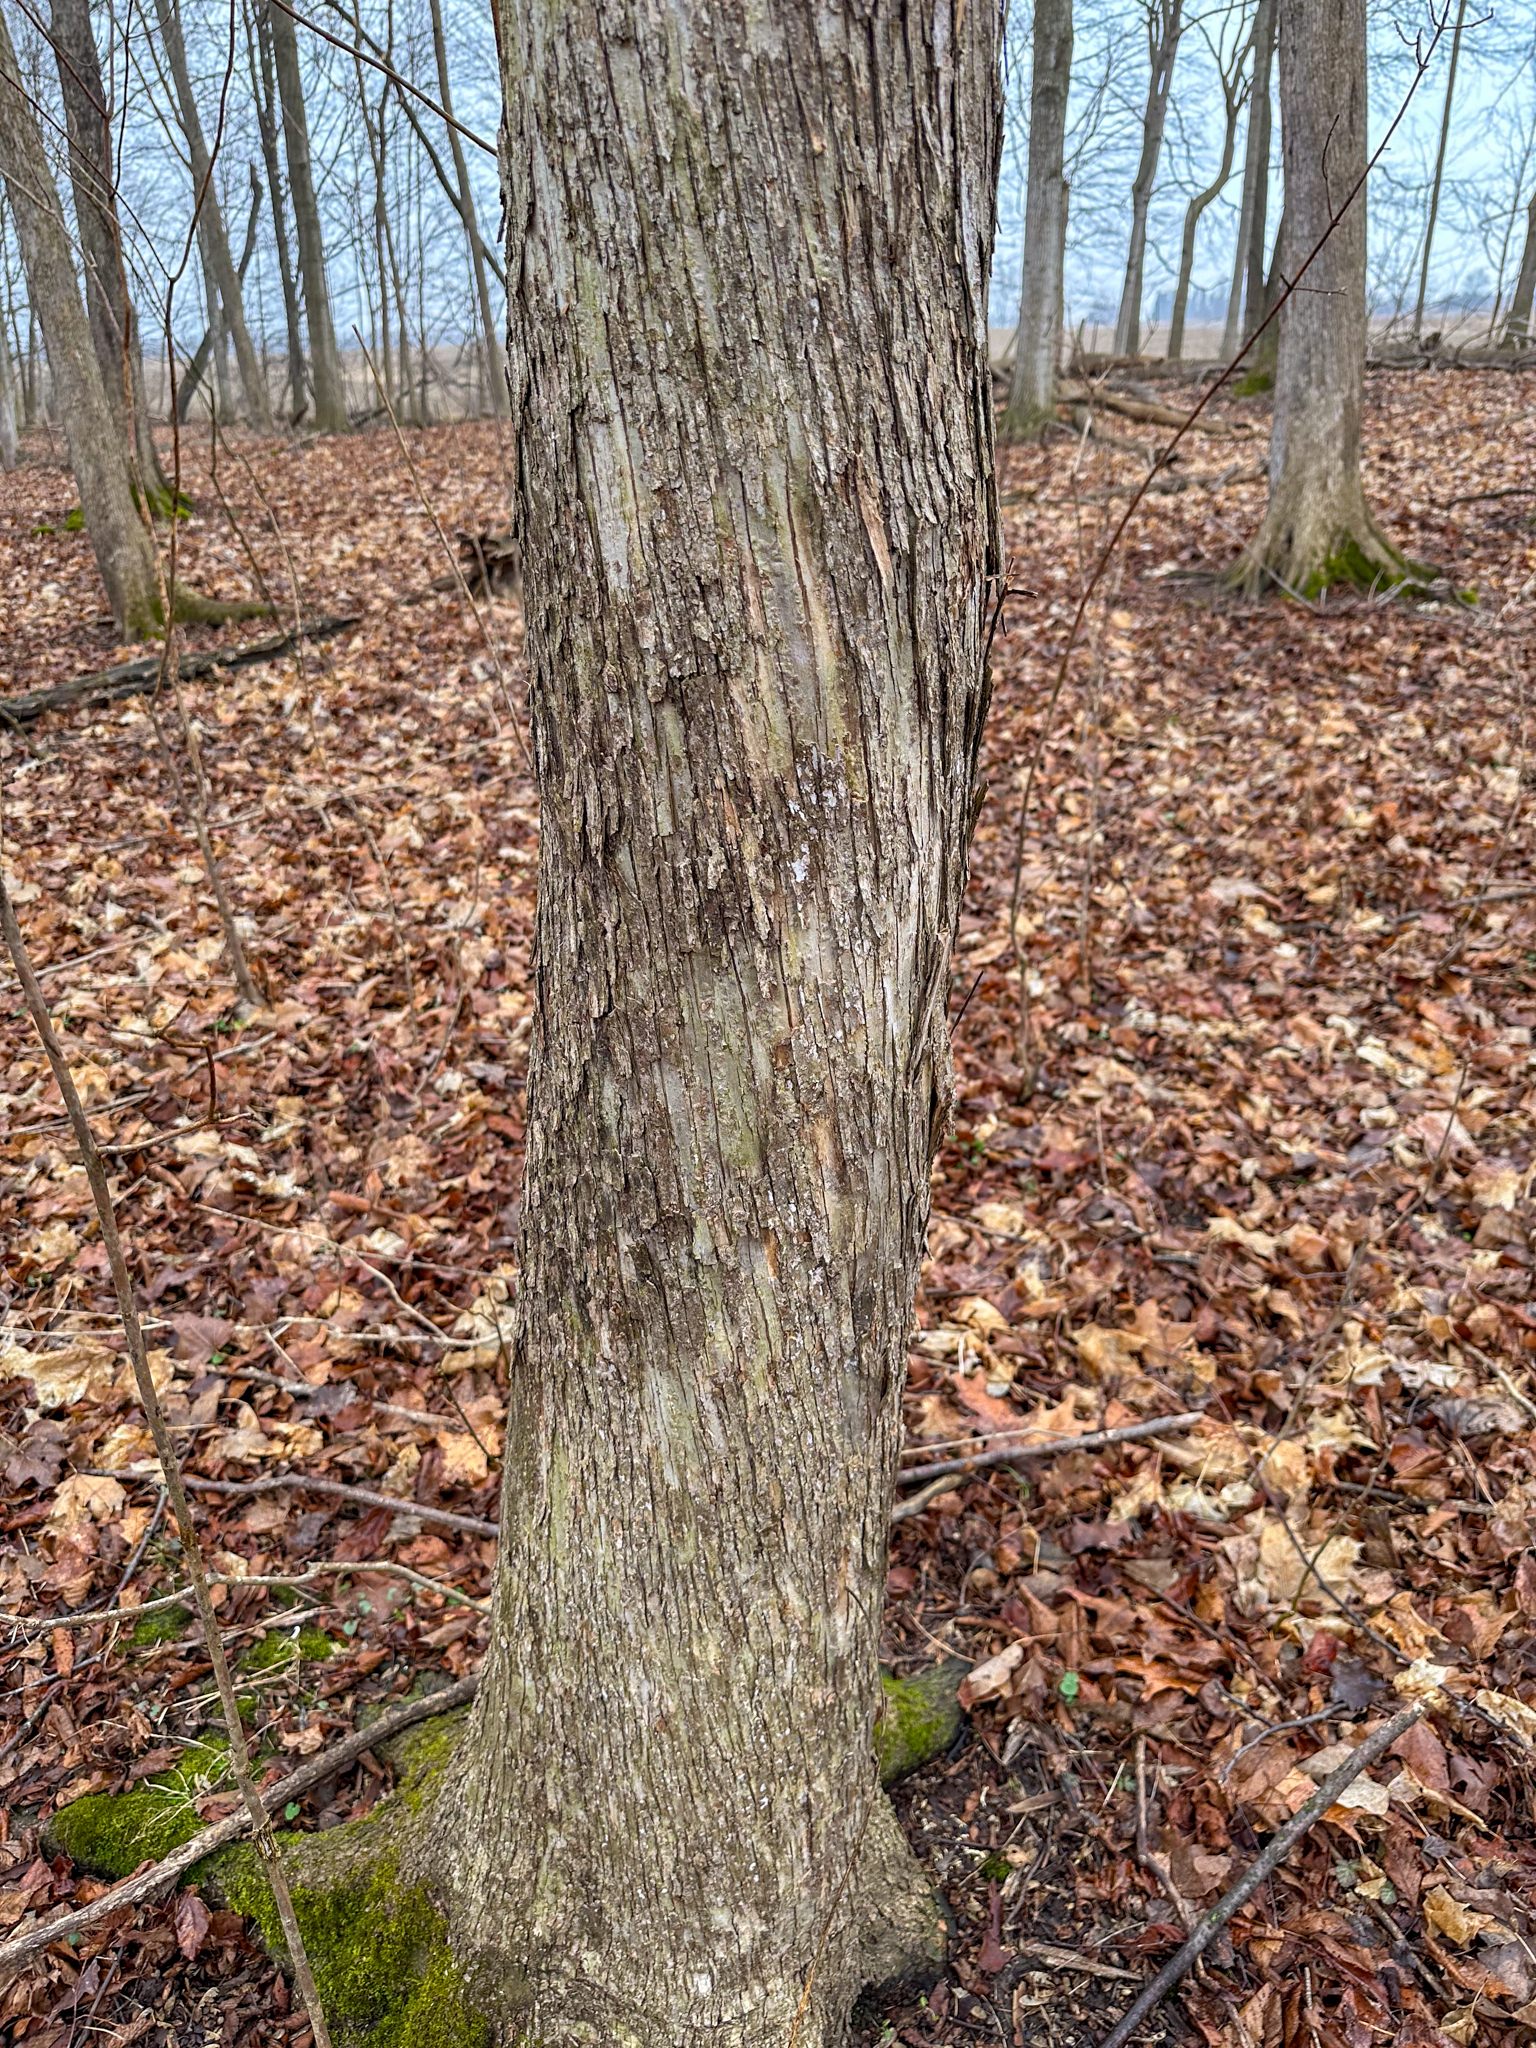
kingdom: Plantae
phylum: Tracheophyta
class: Magnoliopsida
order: Fagales
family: Betulaceae
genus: Ostrya
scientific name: Ostrya virginiana
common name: Ironwood
